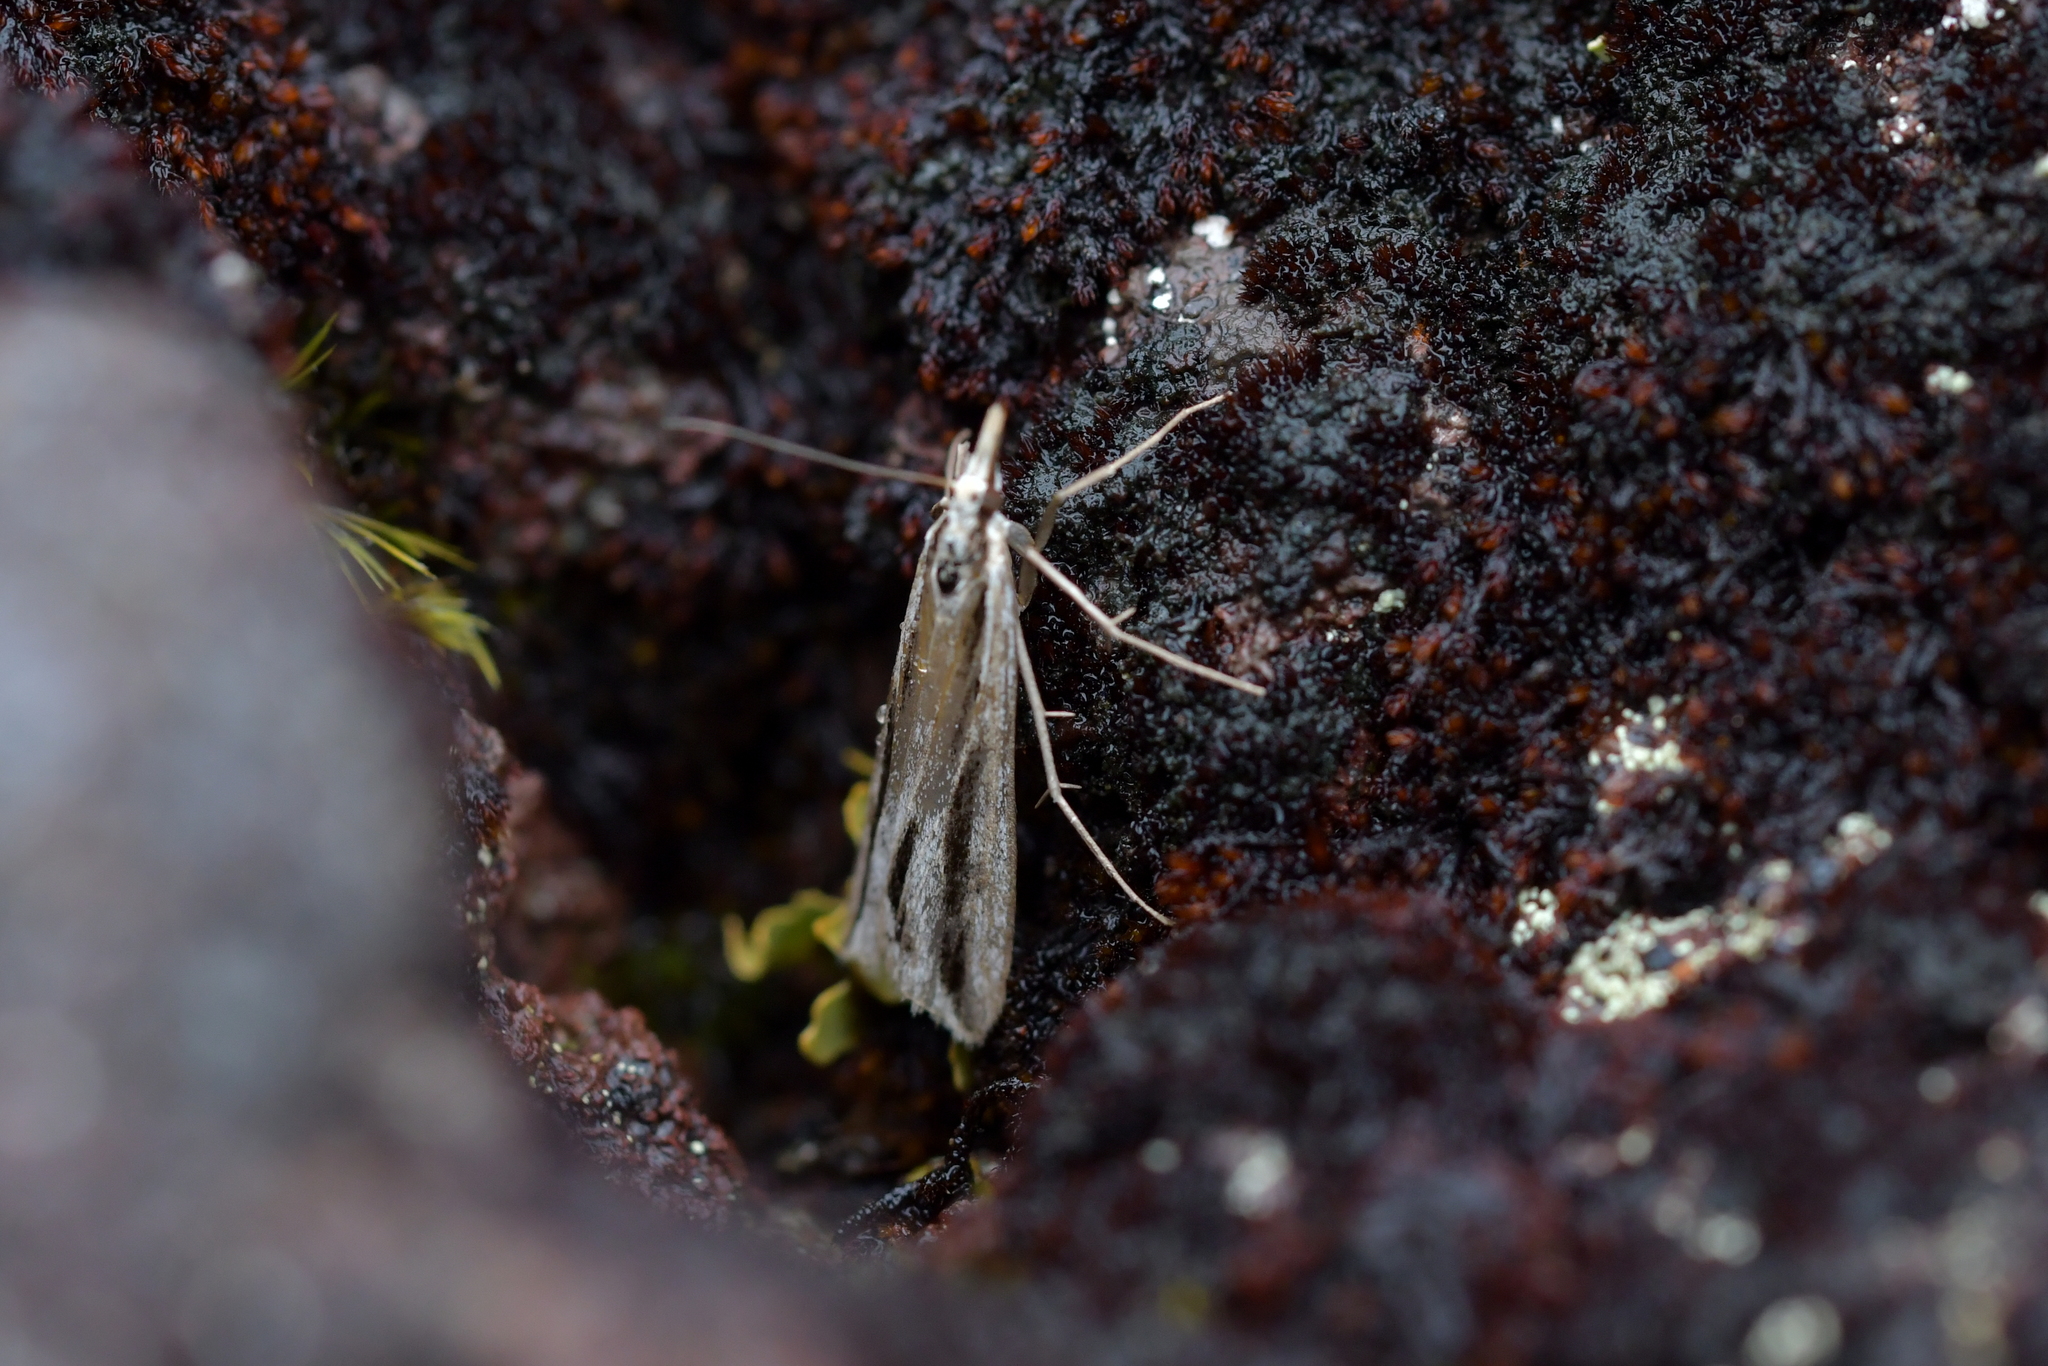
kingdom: Animalia
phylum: Arthropoda
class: Insecta
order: Lepidoptera
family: Crambidae
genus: Eudonia
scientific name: Eudonia trivirgata
